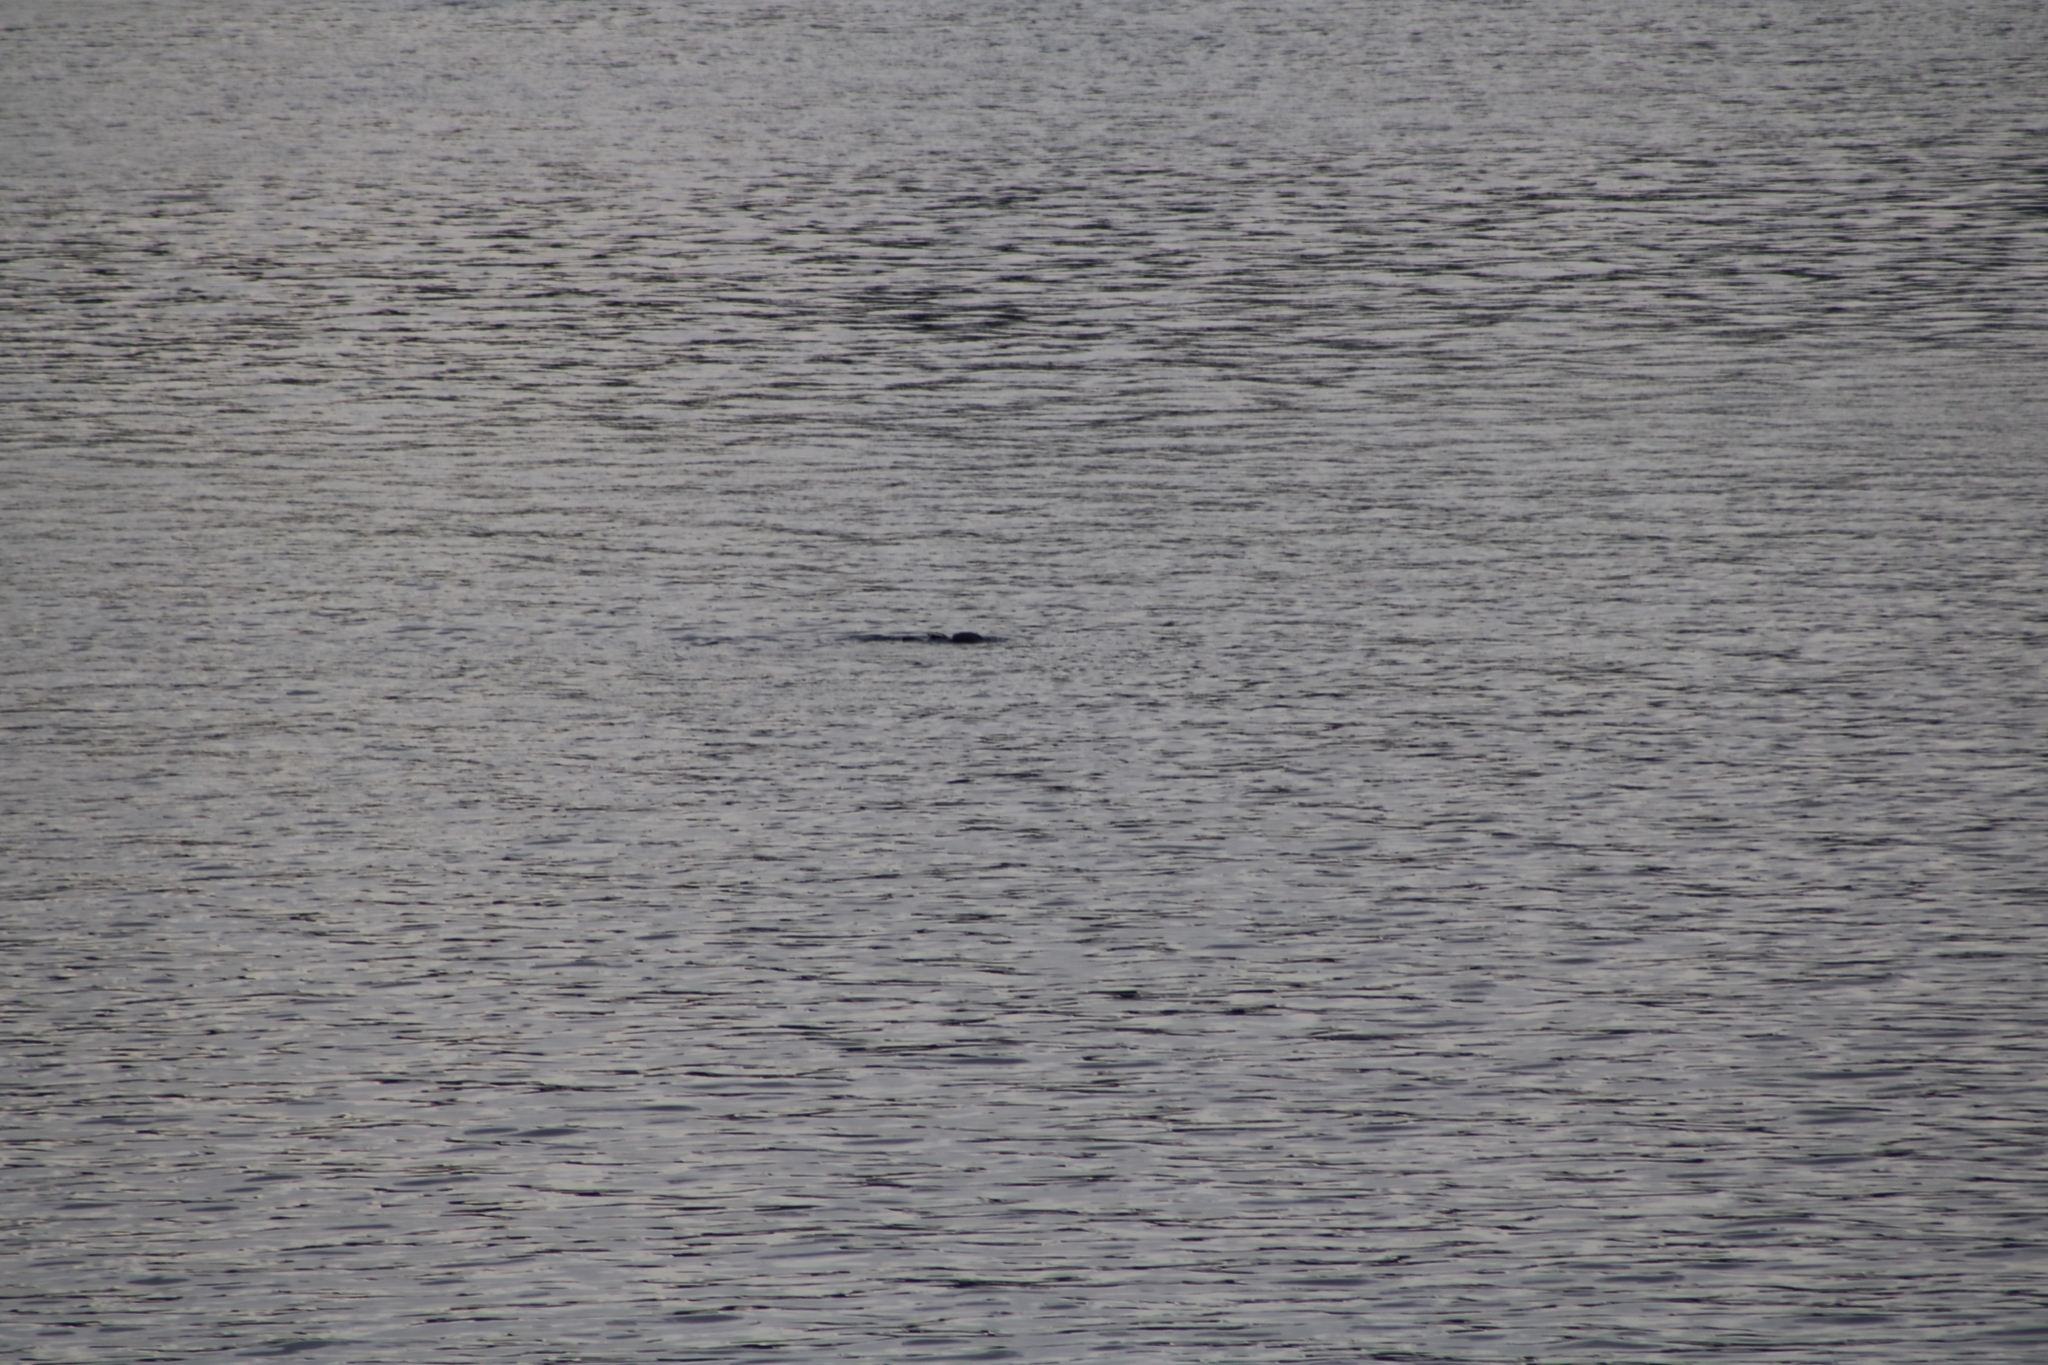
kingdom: Animalia
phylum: Chordata
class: Mammalia
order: Carnivora
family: Otariidae
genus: Arctocephalus
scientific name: Arctocephalus forsteri
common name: New zealand fur seal
